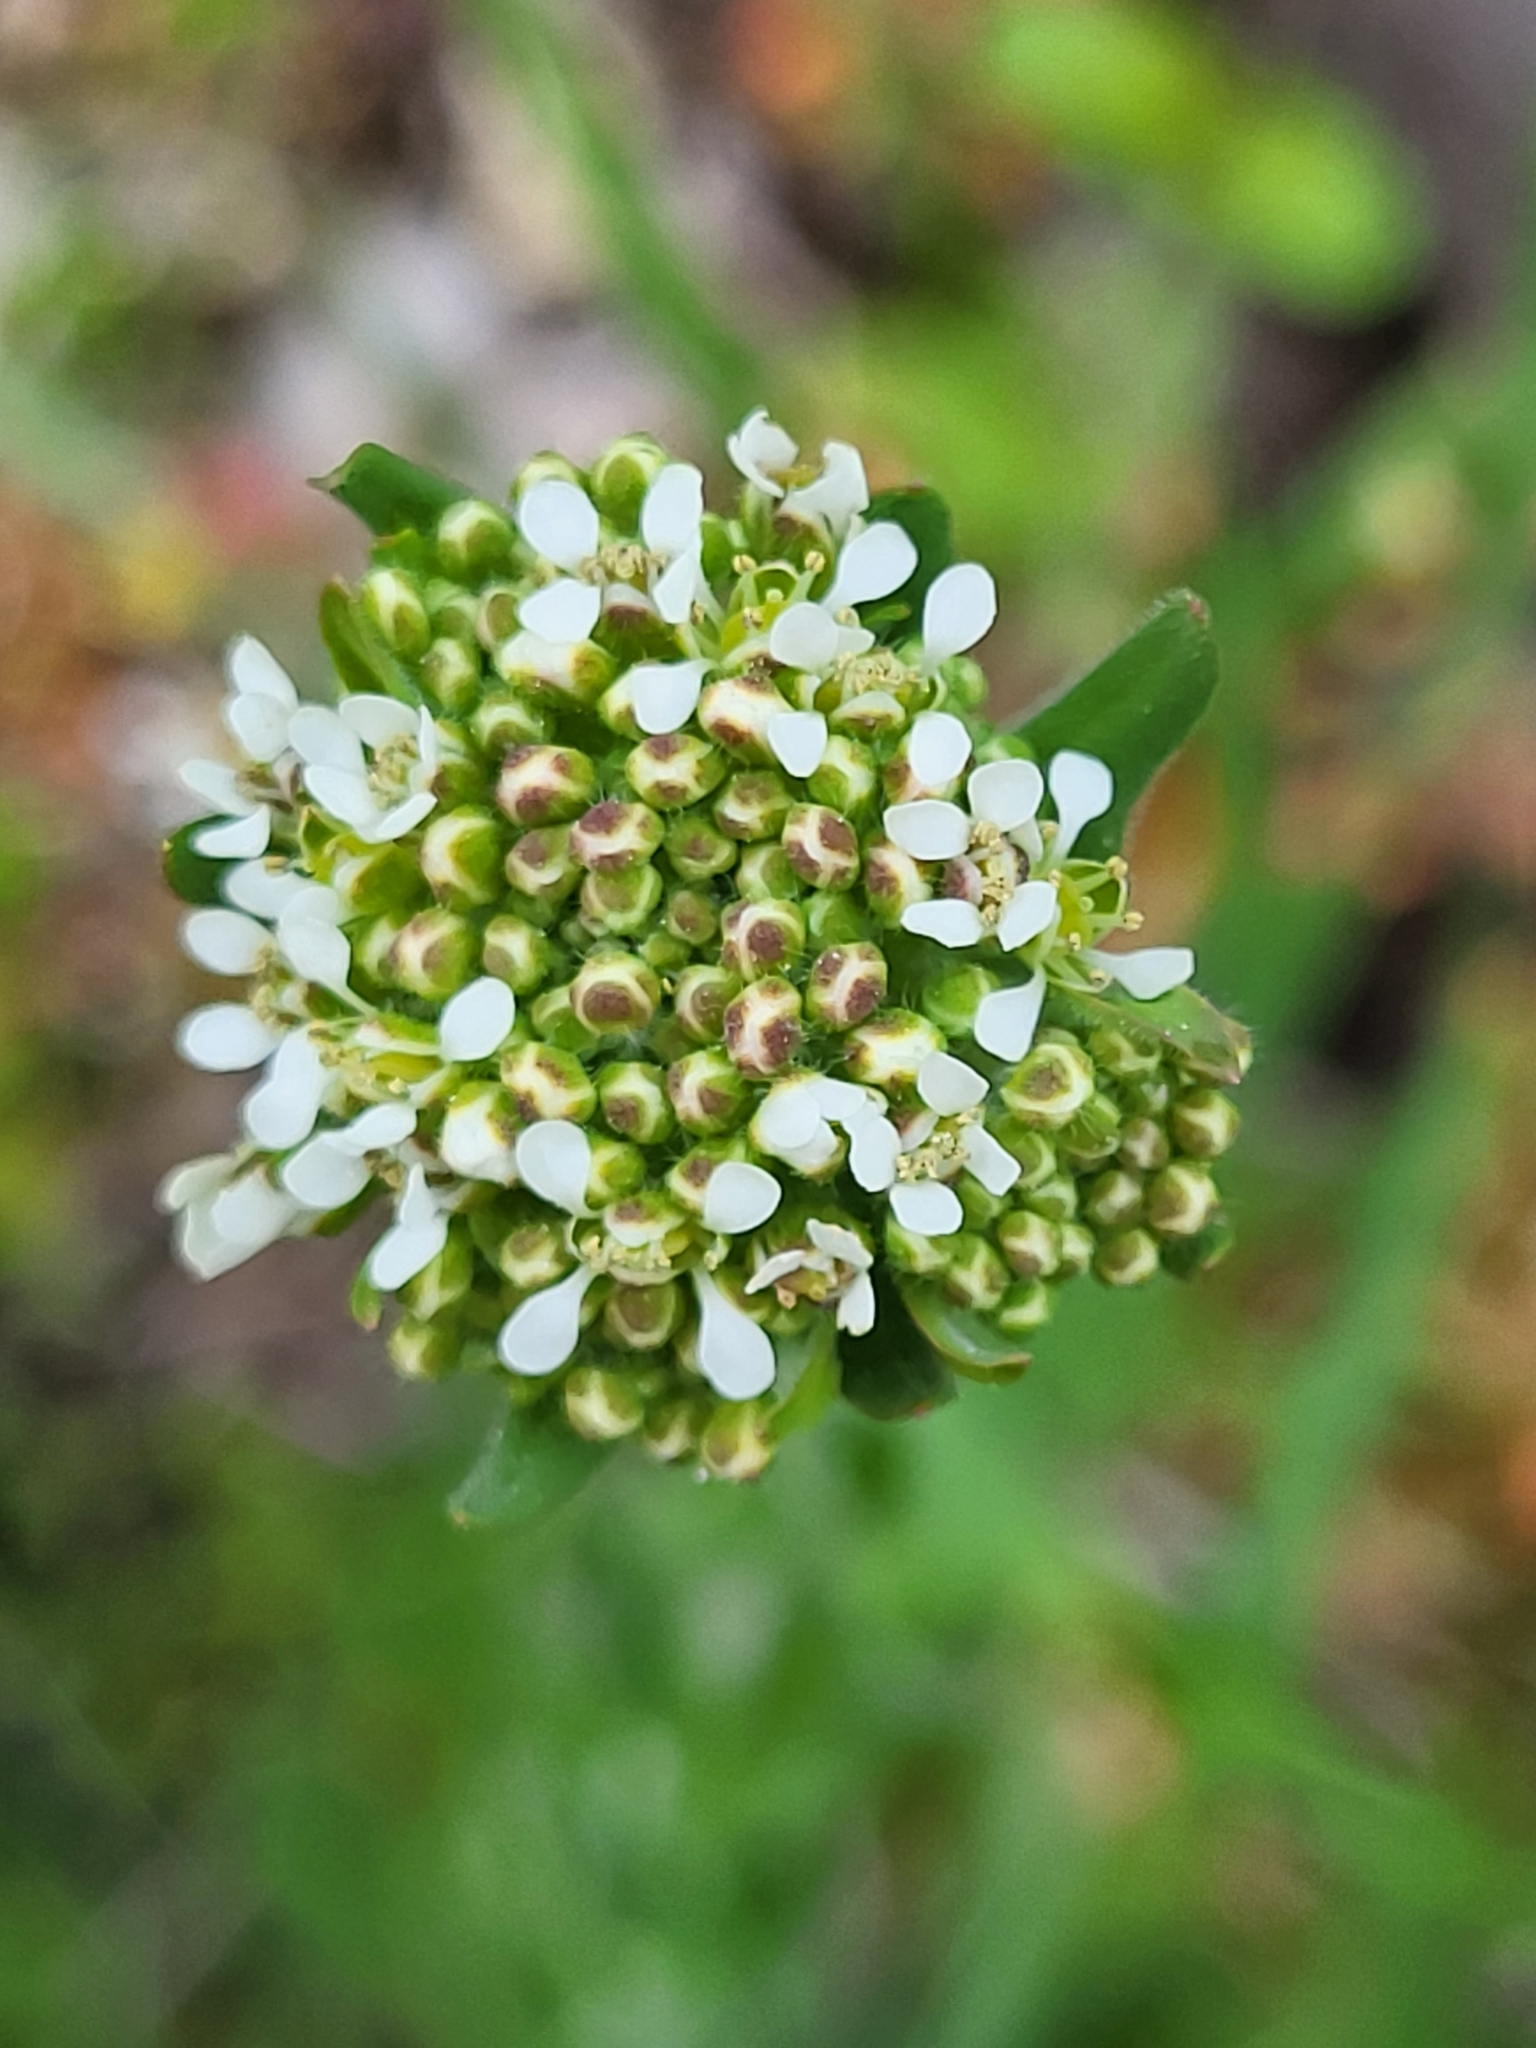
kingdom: Plantae
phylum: Tracheophyta
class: Magnoliopsida
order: Brassicales
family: Brassicaceae
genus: Lepidium
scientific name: Lepidium campestre
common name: Field pepperwort
